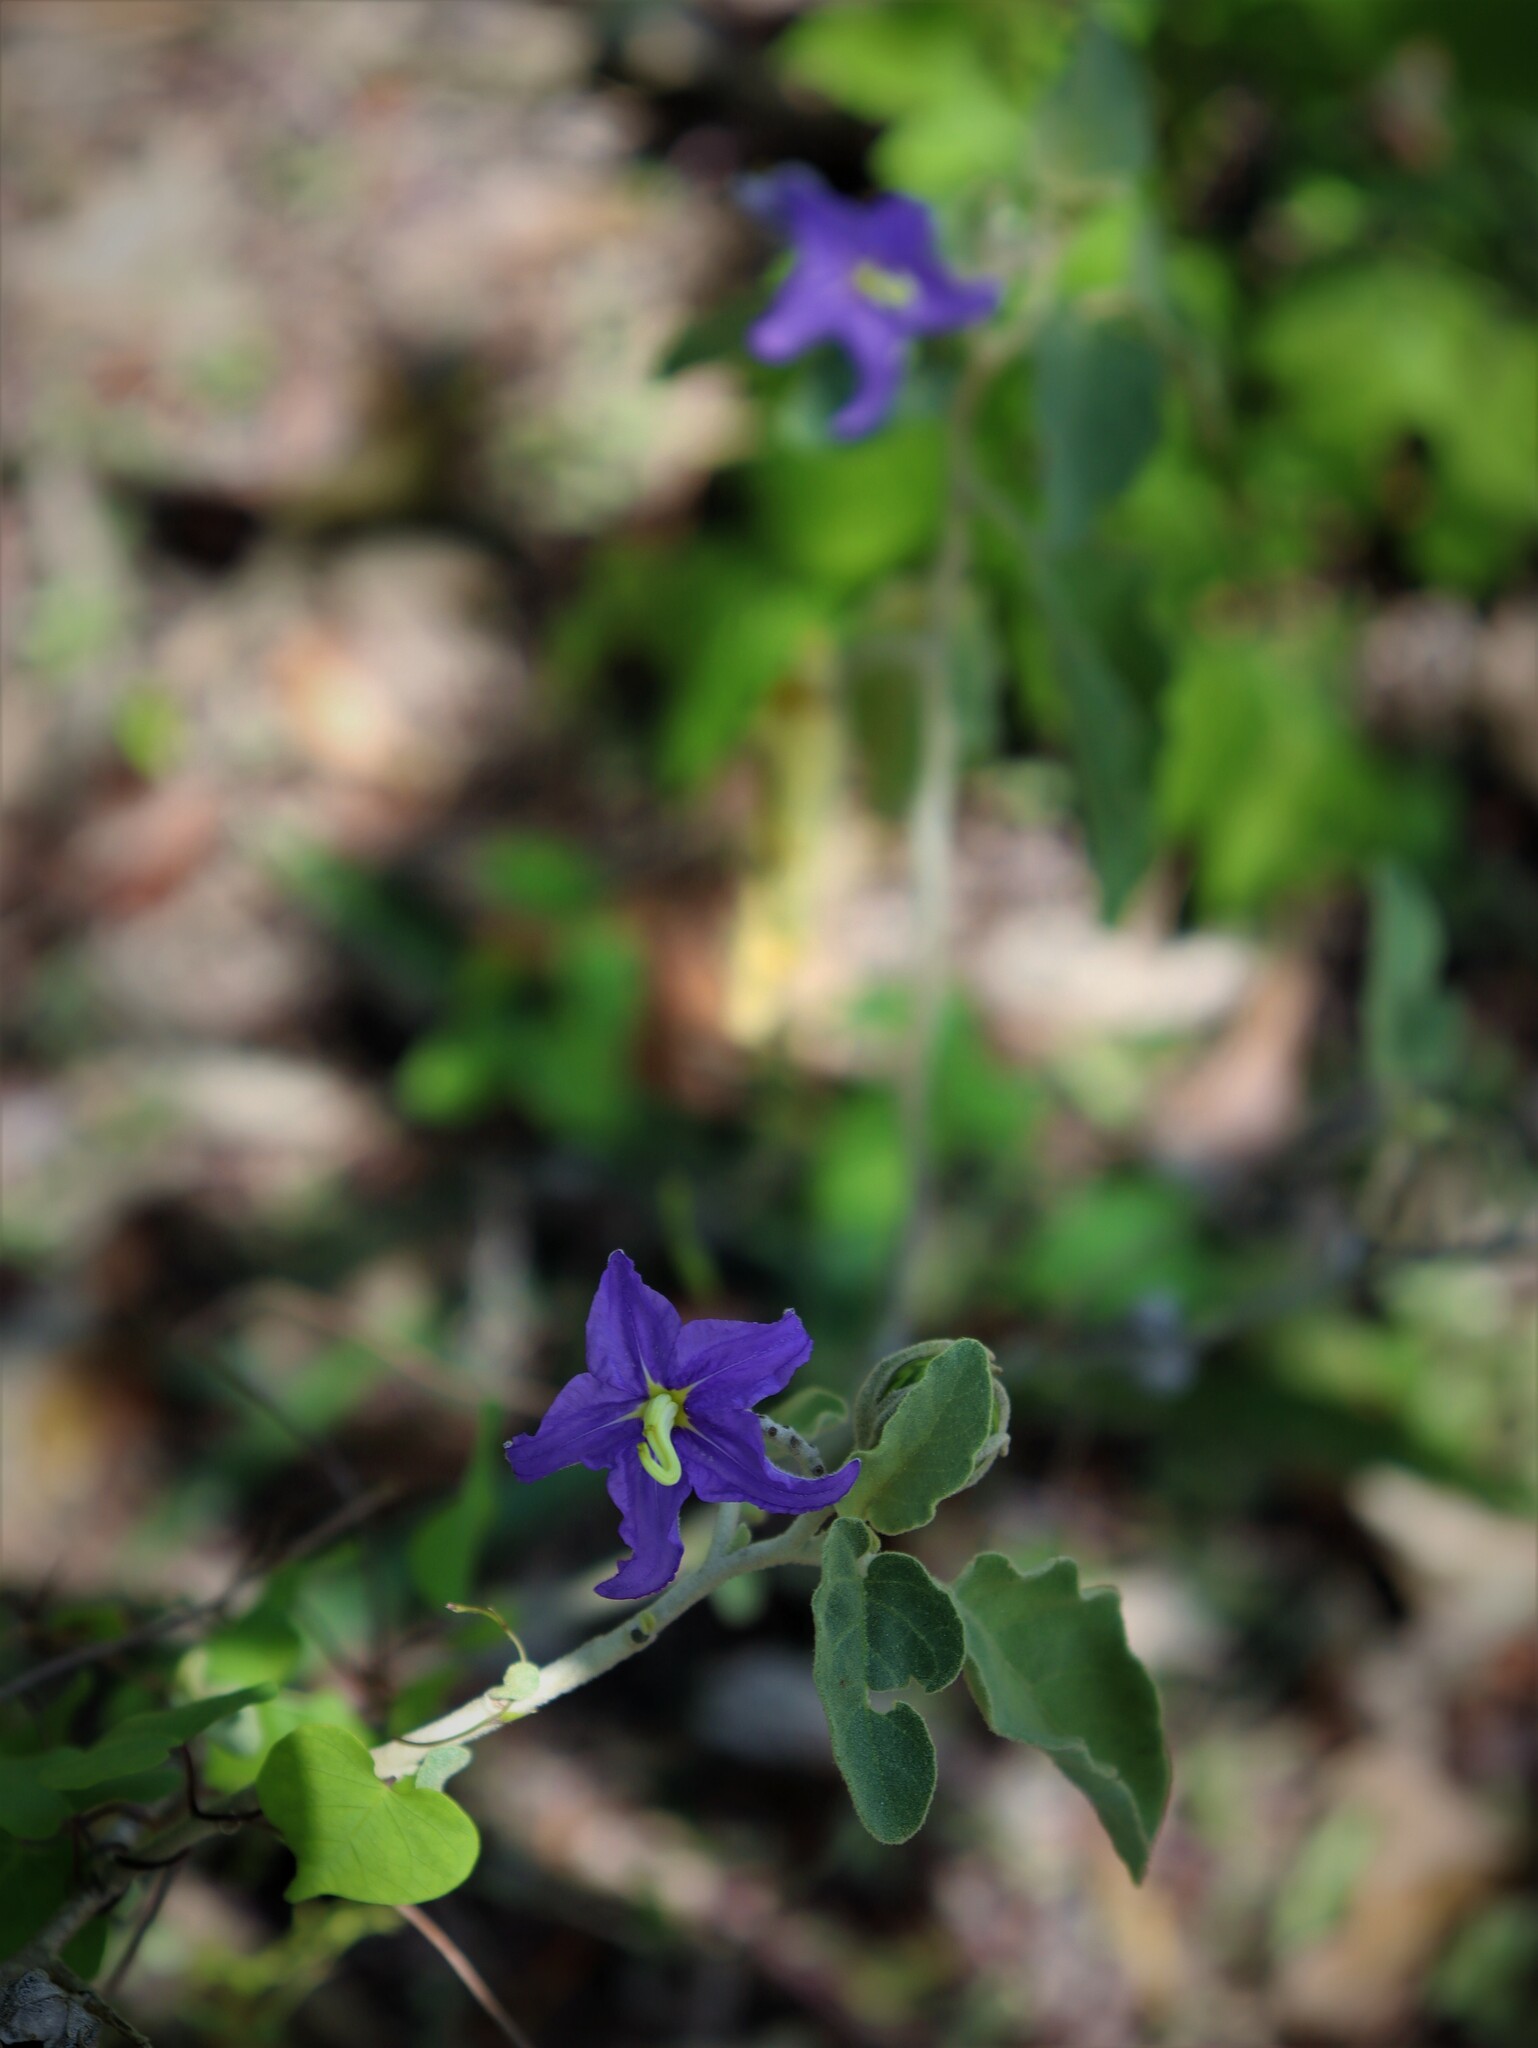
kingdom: Plantae
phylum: Tracheophyta
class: Magnoliopsida
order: Solanales
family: Solanaceae
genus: Solanum
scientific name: Solanum houstonii
